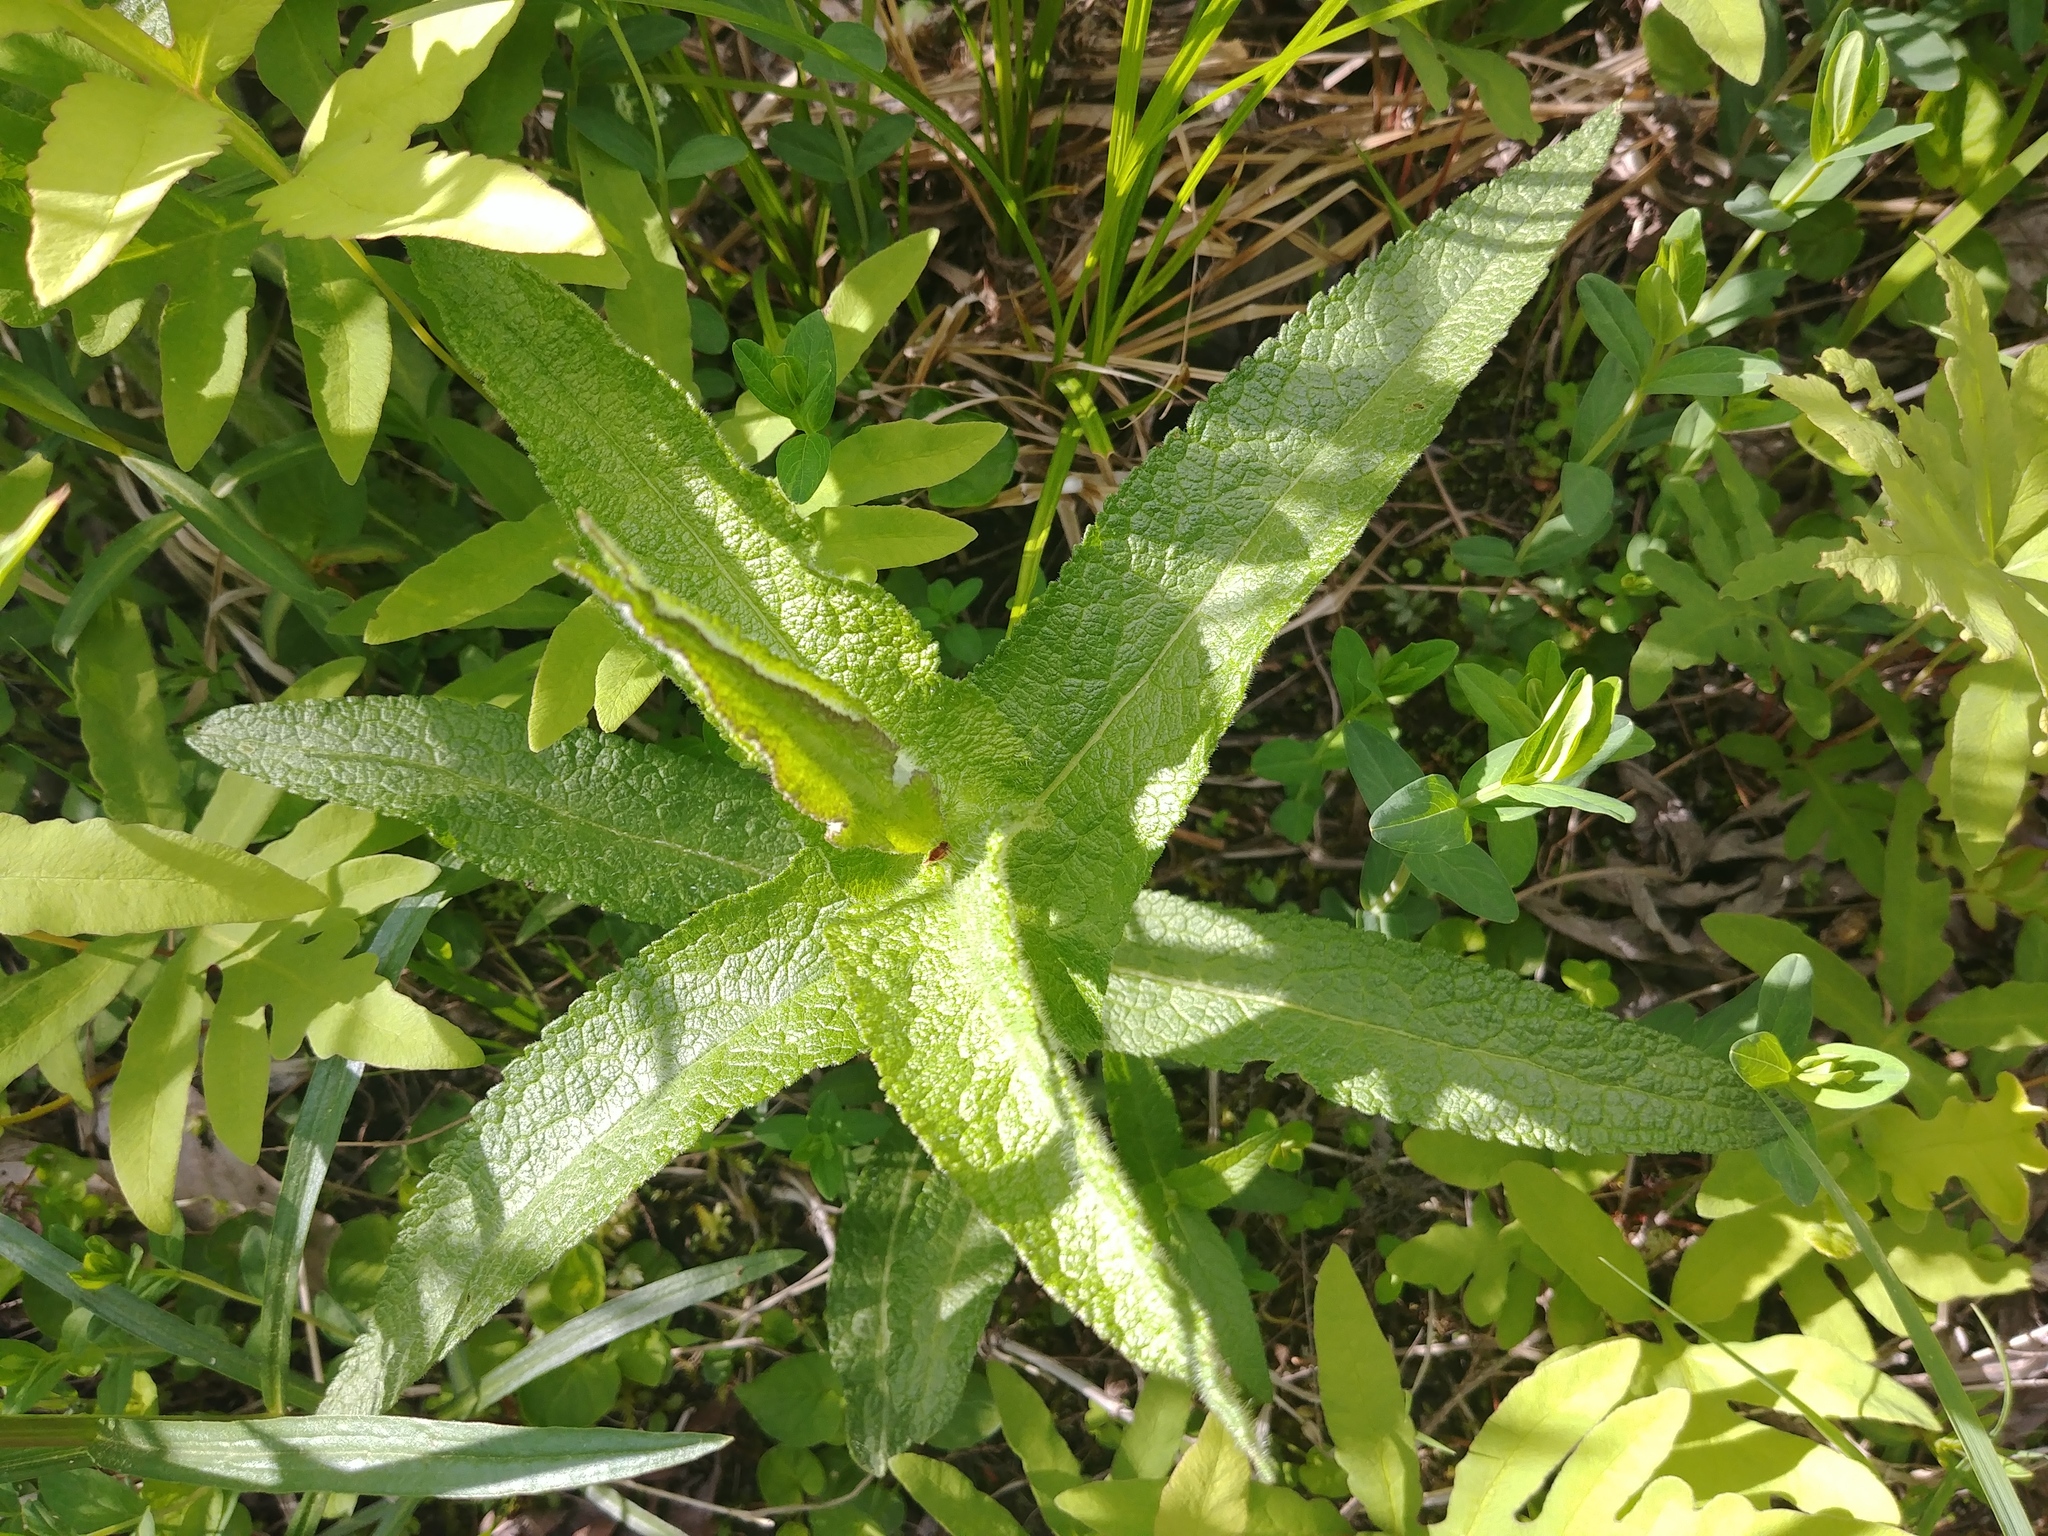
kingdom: Plantae
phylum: Tracheophyta
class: Magnoliopsida
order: Asterales
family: Asteraceae
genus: Eupatorium
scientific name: Eupatorium perfoliatum
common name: Boneset
